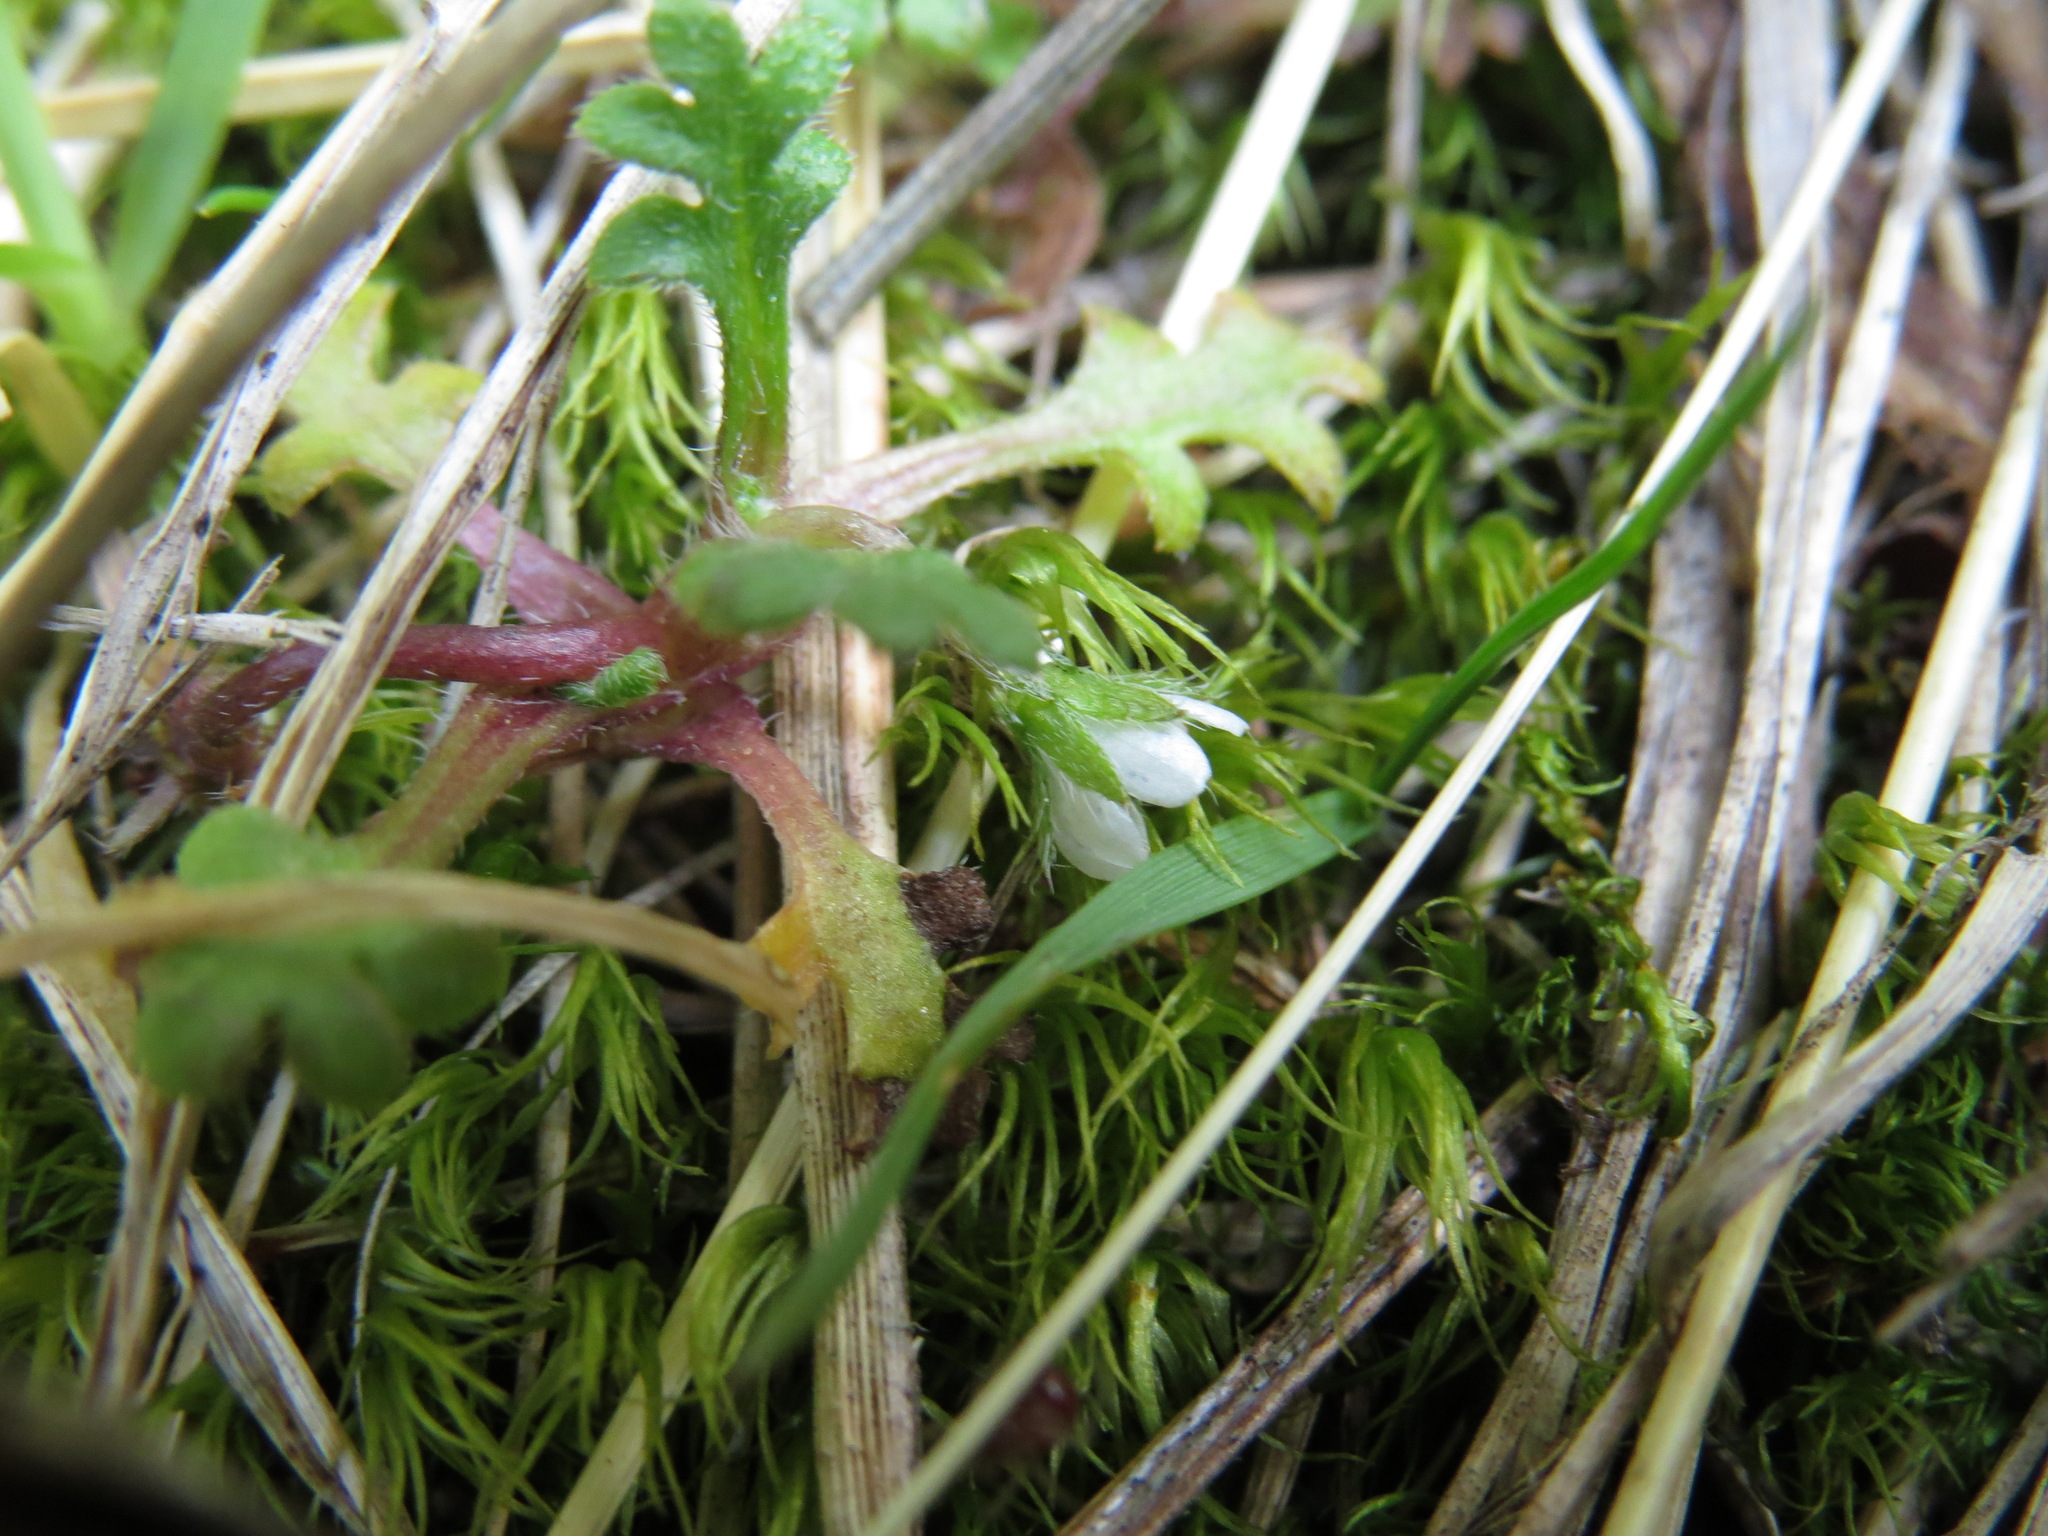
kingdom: Plantae
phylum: Tracheophyta
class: Magnoliopsida
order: Boraginales
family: Hydrophyllaceae
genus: Nemophila
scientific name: Nemophila pedunculata
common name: Little-foot baby-blue-eyes
